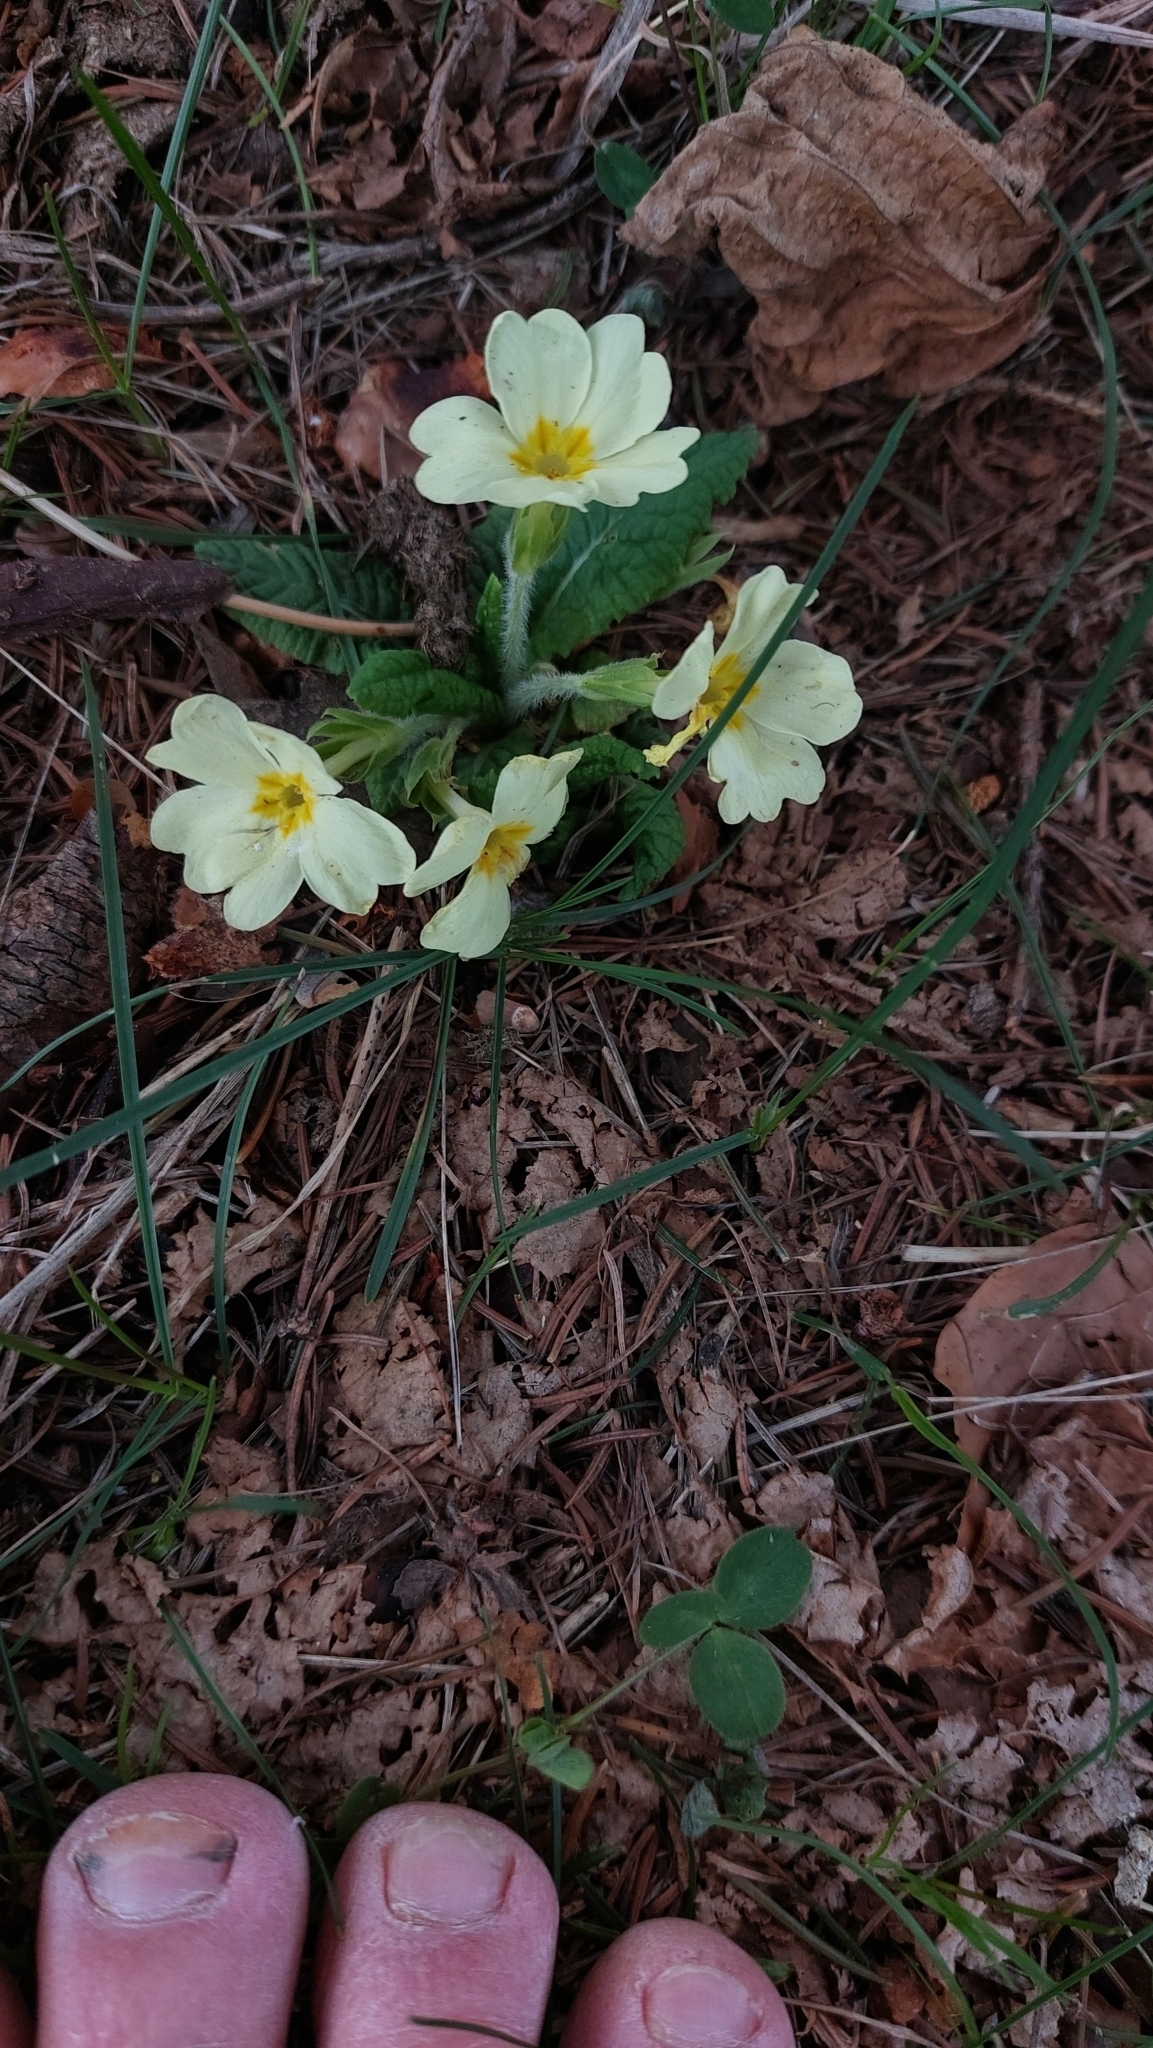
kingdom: Plantae
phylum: Tracheophyta
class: Magnoliopsida
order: Ericales
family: Primulaceae
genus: Primula
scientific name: Primula vulgaris
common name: Primrose
